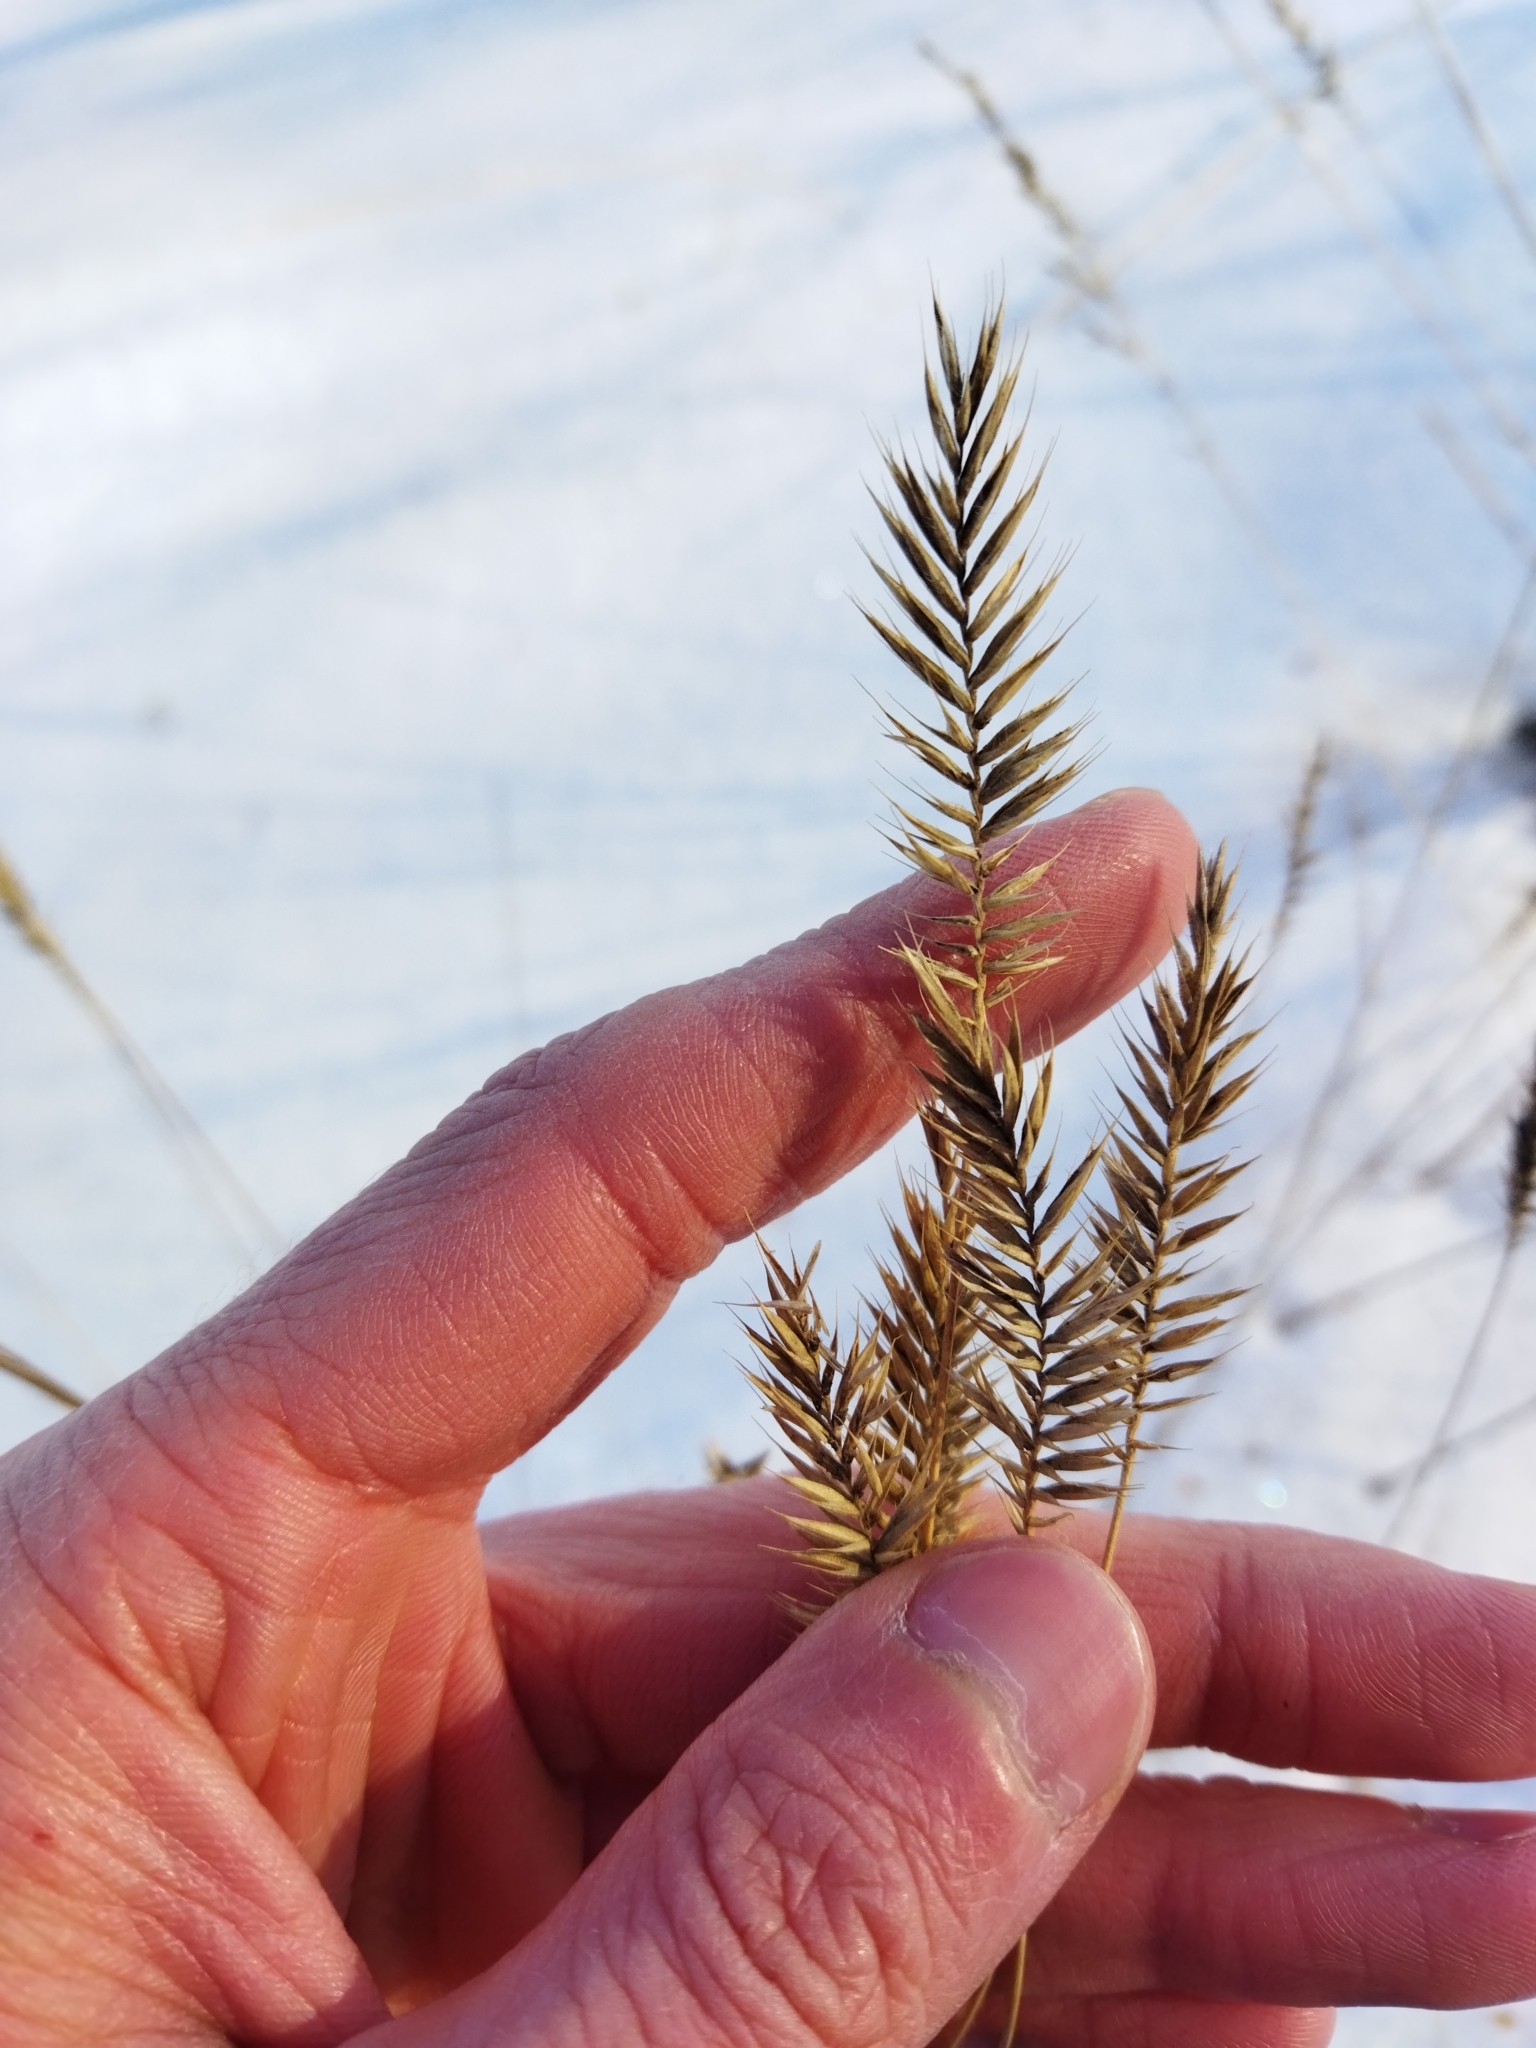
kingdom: Plantae
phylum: Tracheophyta
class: Liliopsida
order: Poales
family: Poaceae
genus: Agropyron
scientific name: Agropyron cristatum
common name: Crested wheatgrass
